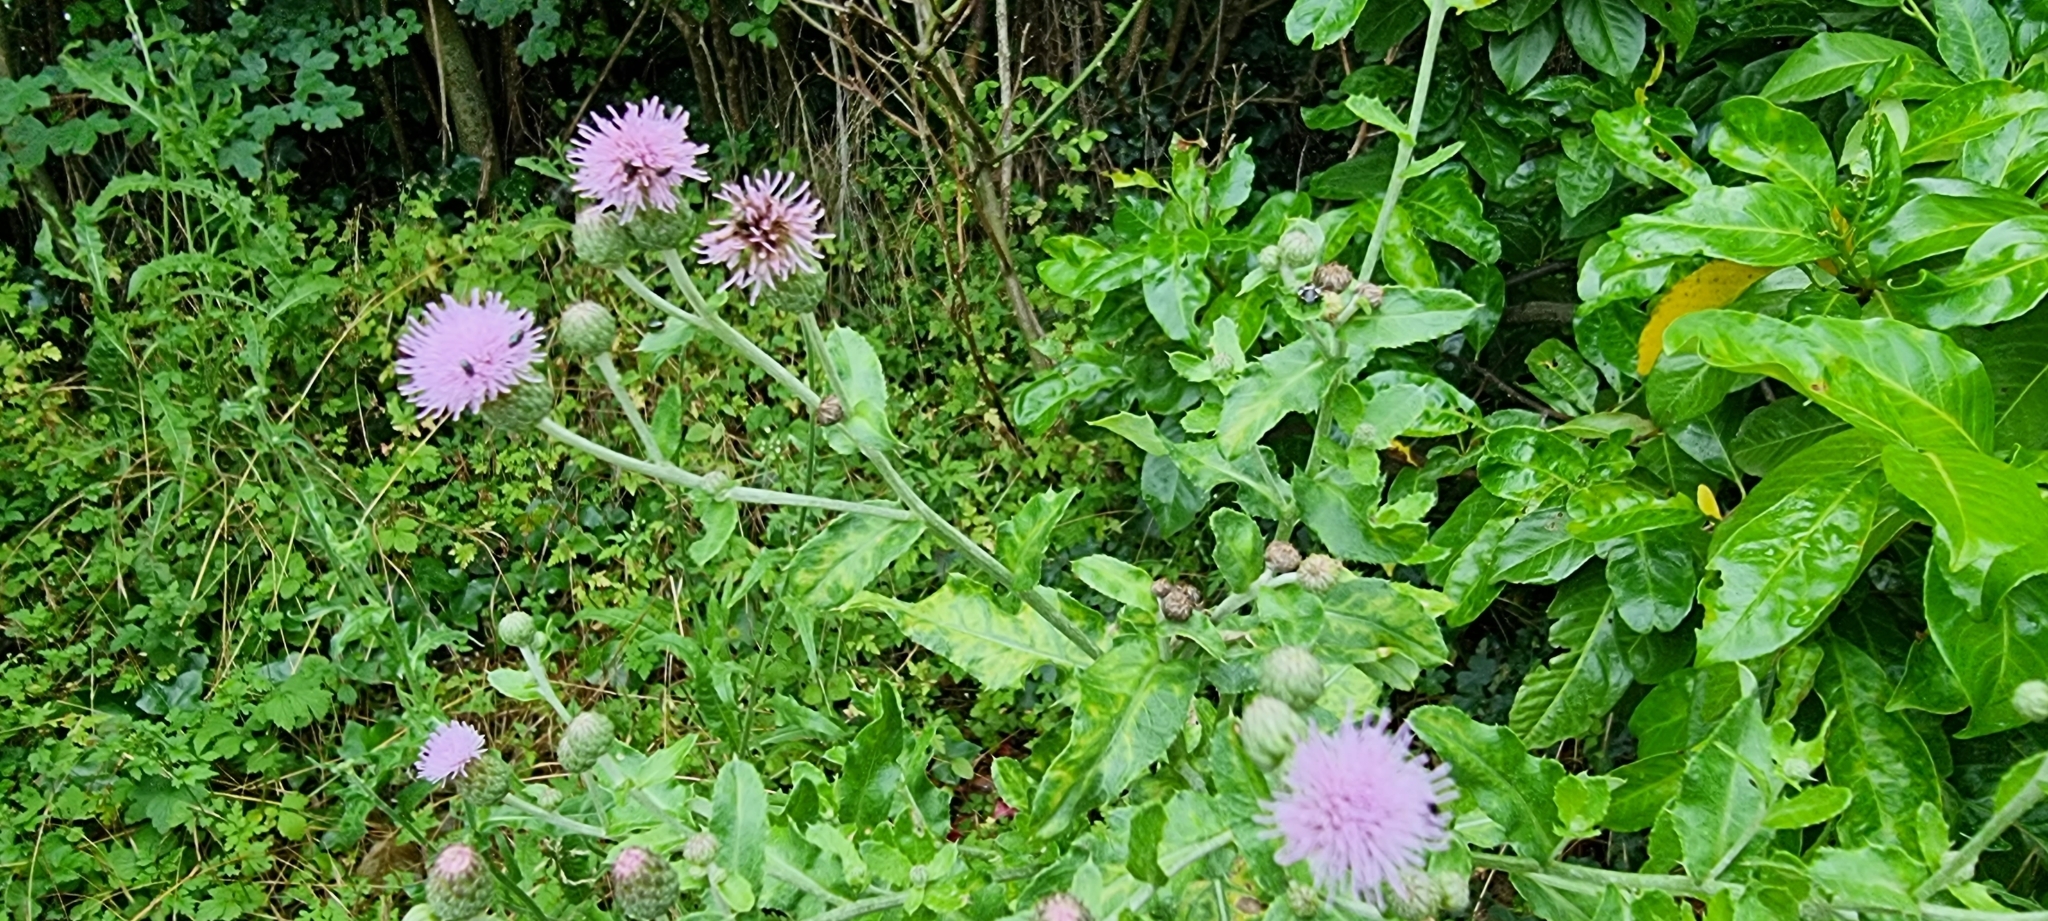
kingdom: Plantae
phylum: Tracheophyta
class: Magnoliopsida
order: Asterales
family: Asteraceae
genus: Cirsium
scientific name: Cirsium arvense
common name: Creeping thistle
